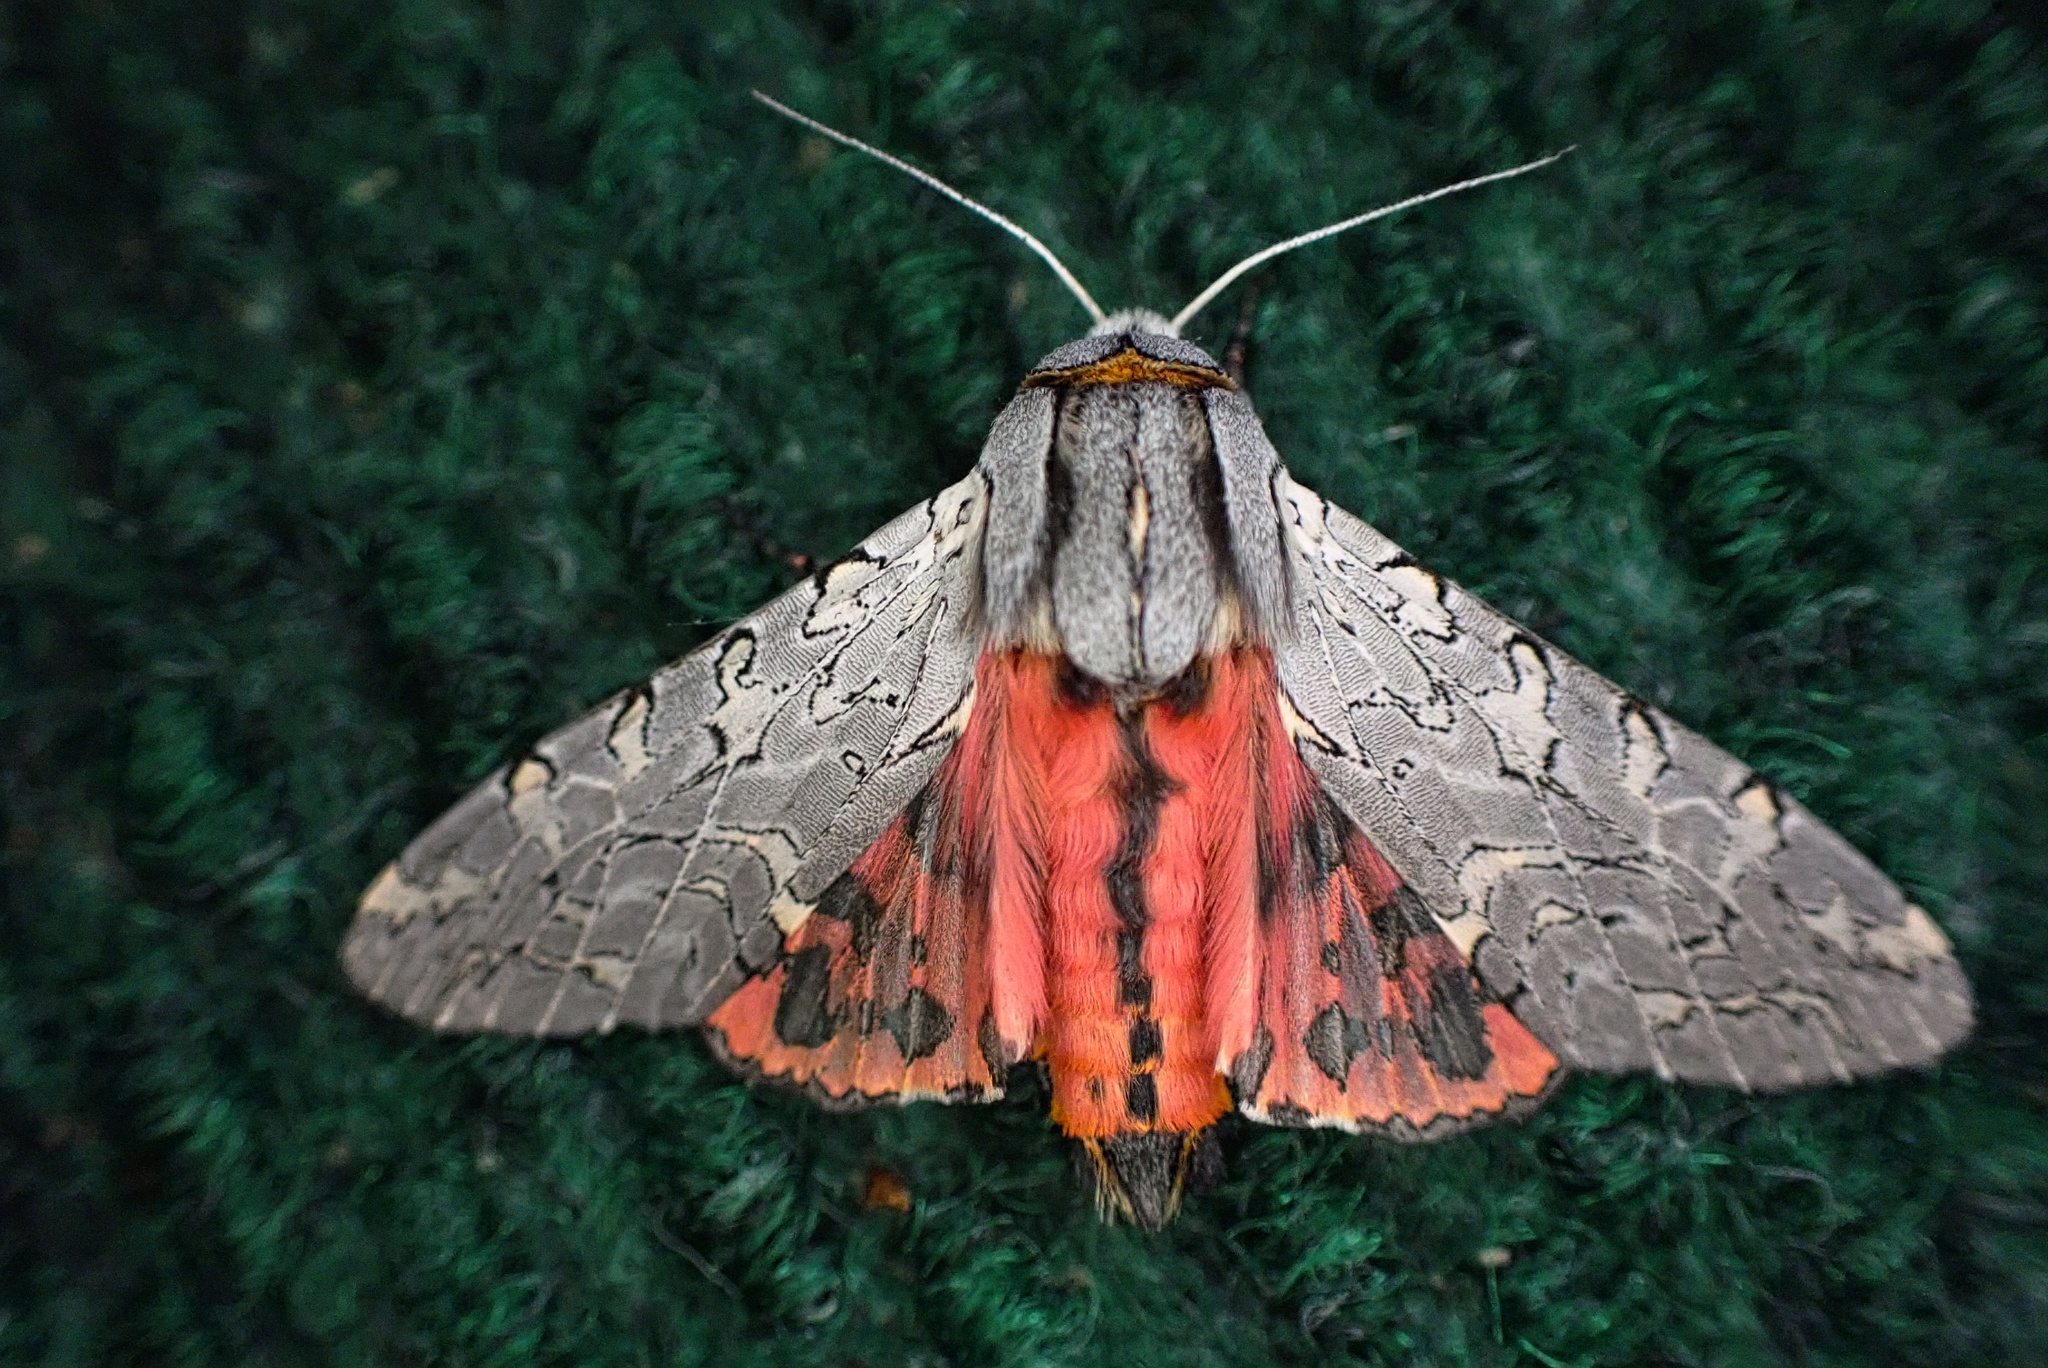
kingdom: Animalia
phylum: Arthropoda
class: Insecta
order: Lepidoptera
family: Erebidae
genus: Arachnis
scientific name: Arachnis picta
